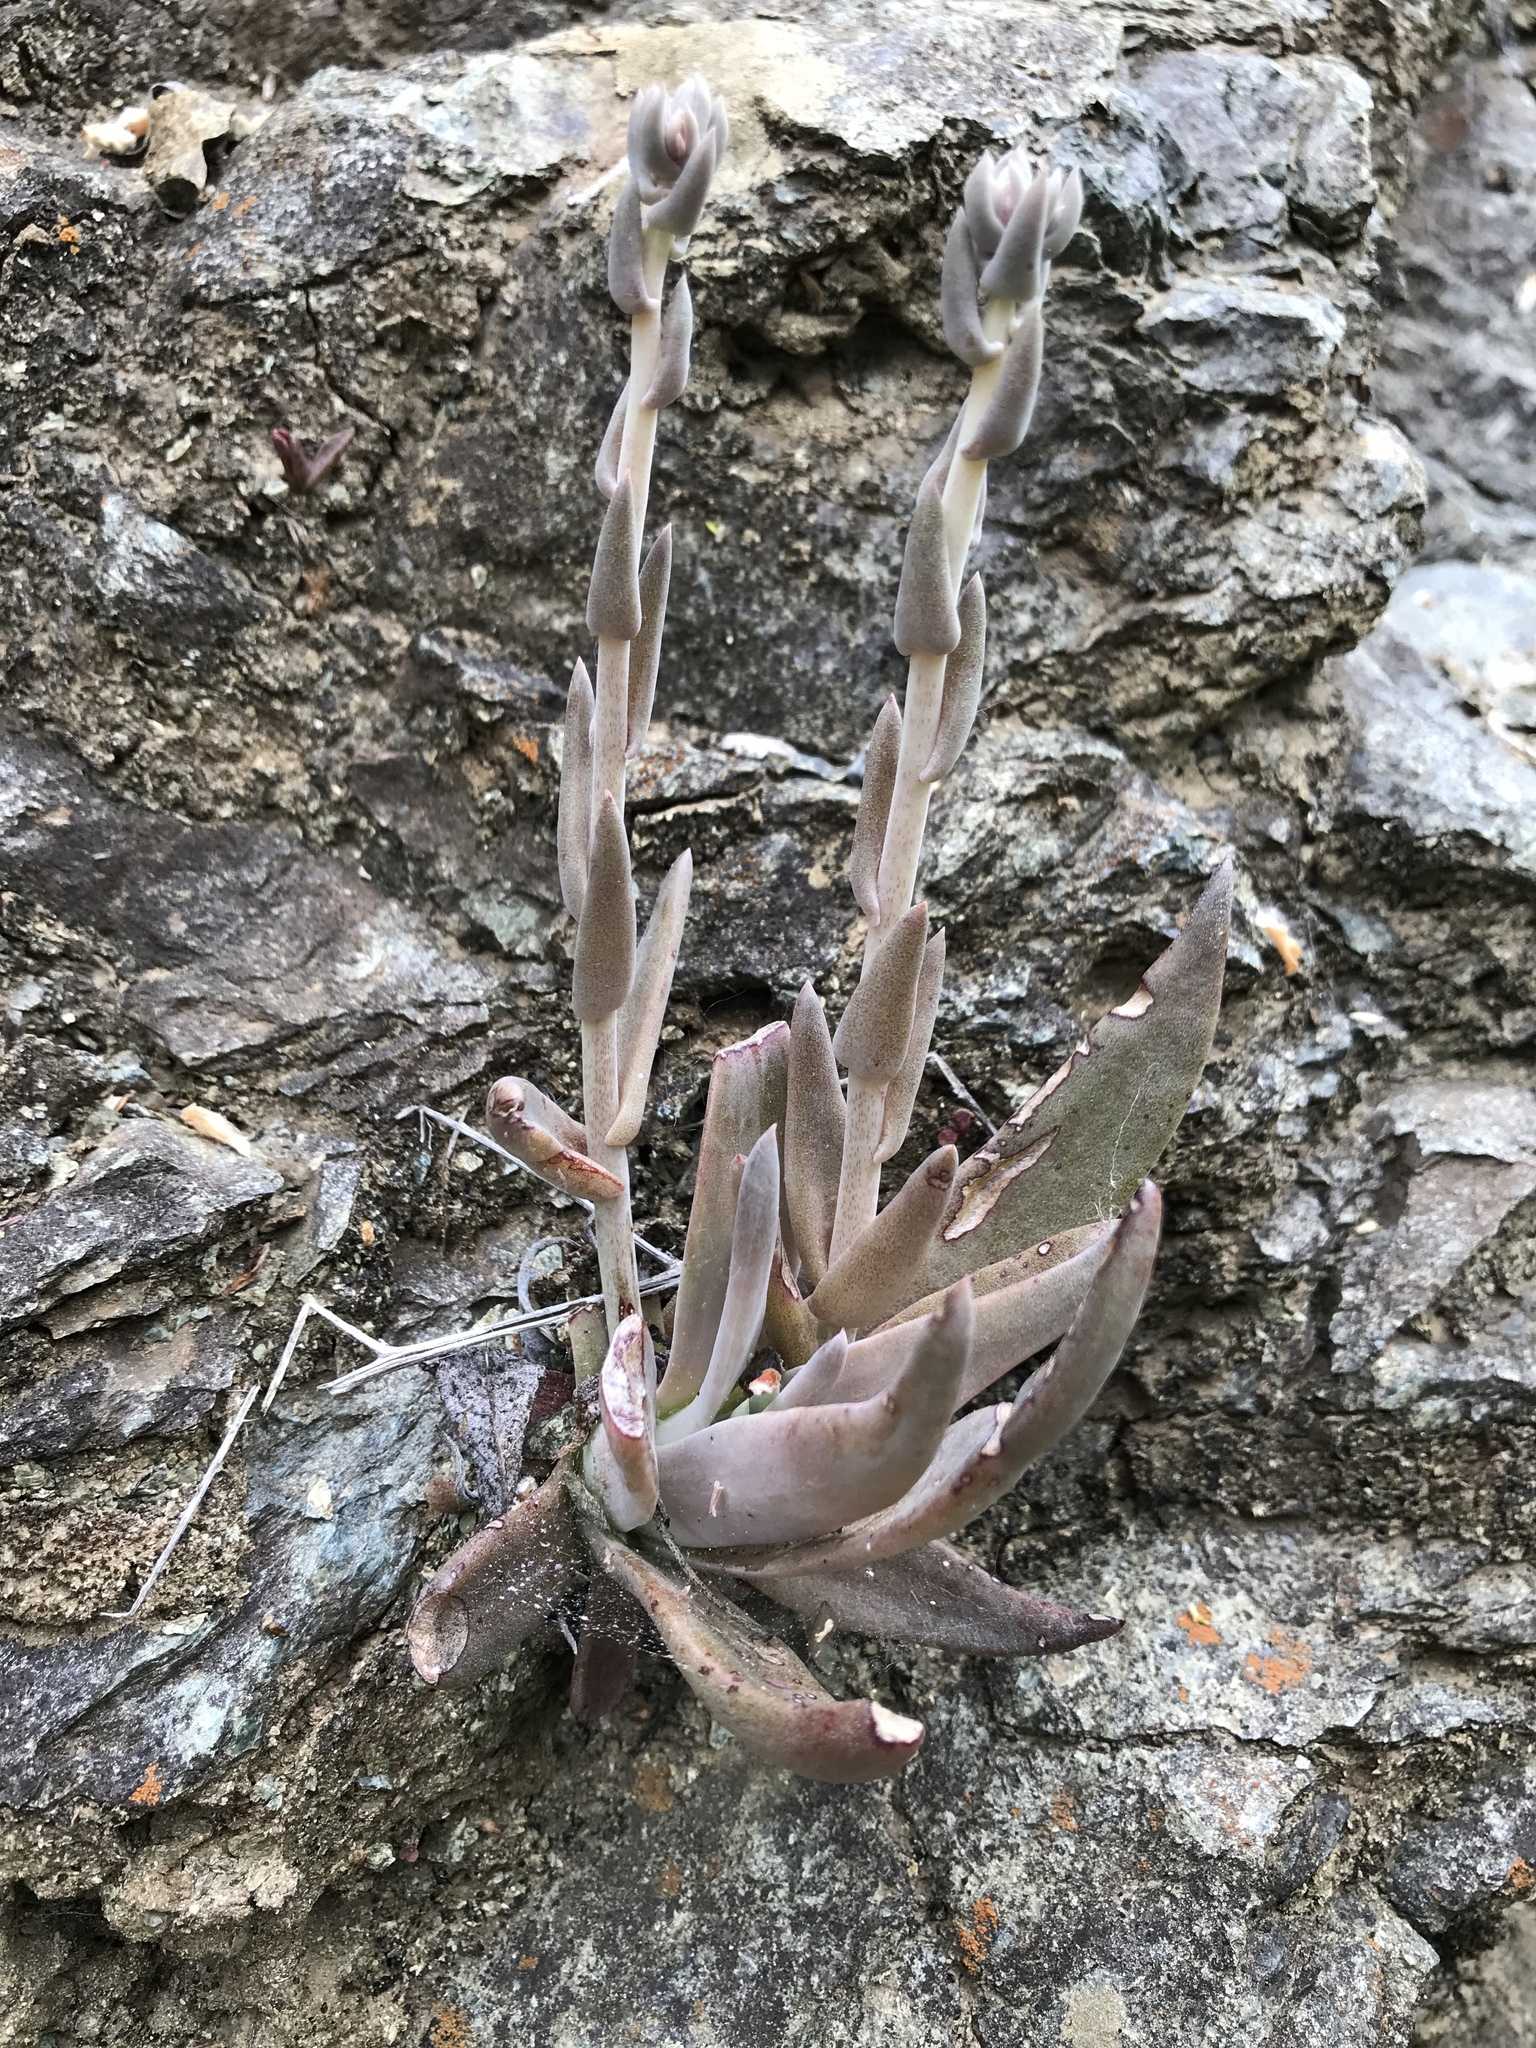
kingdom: Plantae
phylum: Tracheophyta
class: Magnoliopsida
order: Saxifragales
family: Crassulaceae
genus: Dudleya
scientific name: Dudleya abramsii
